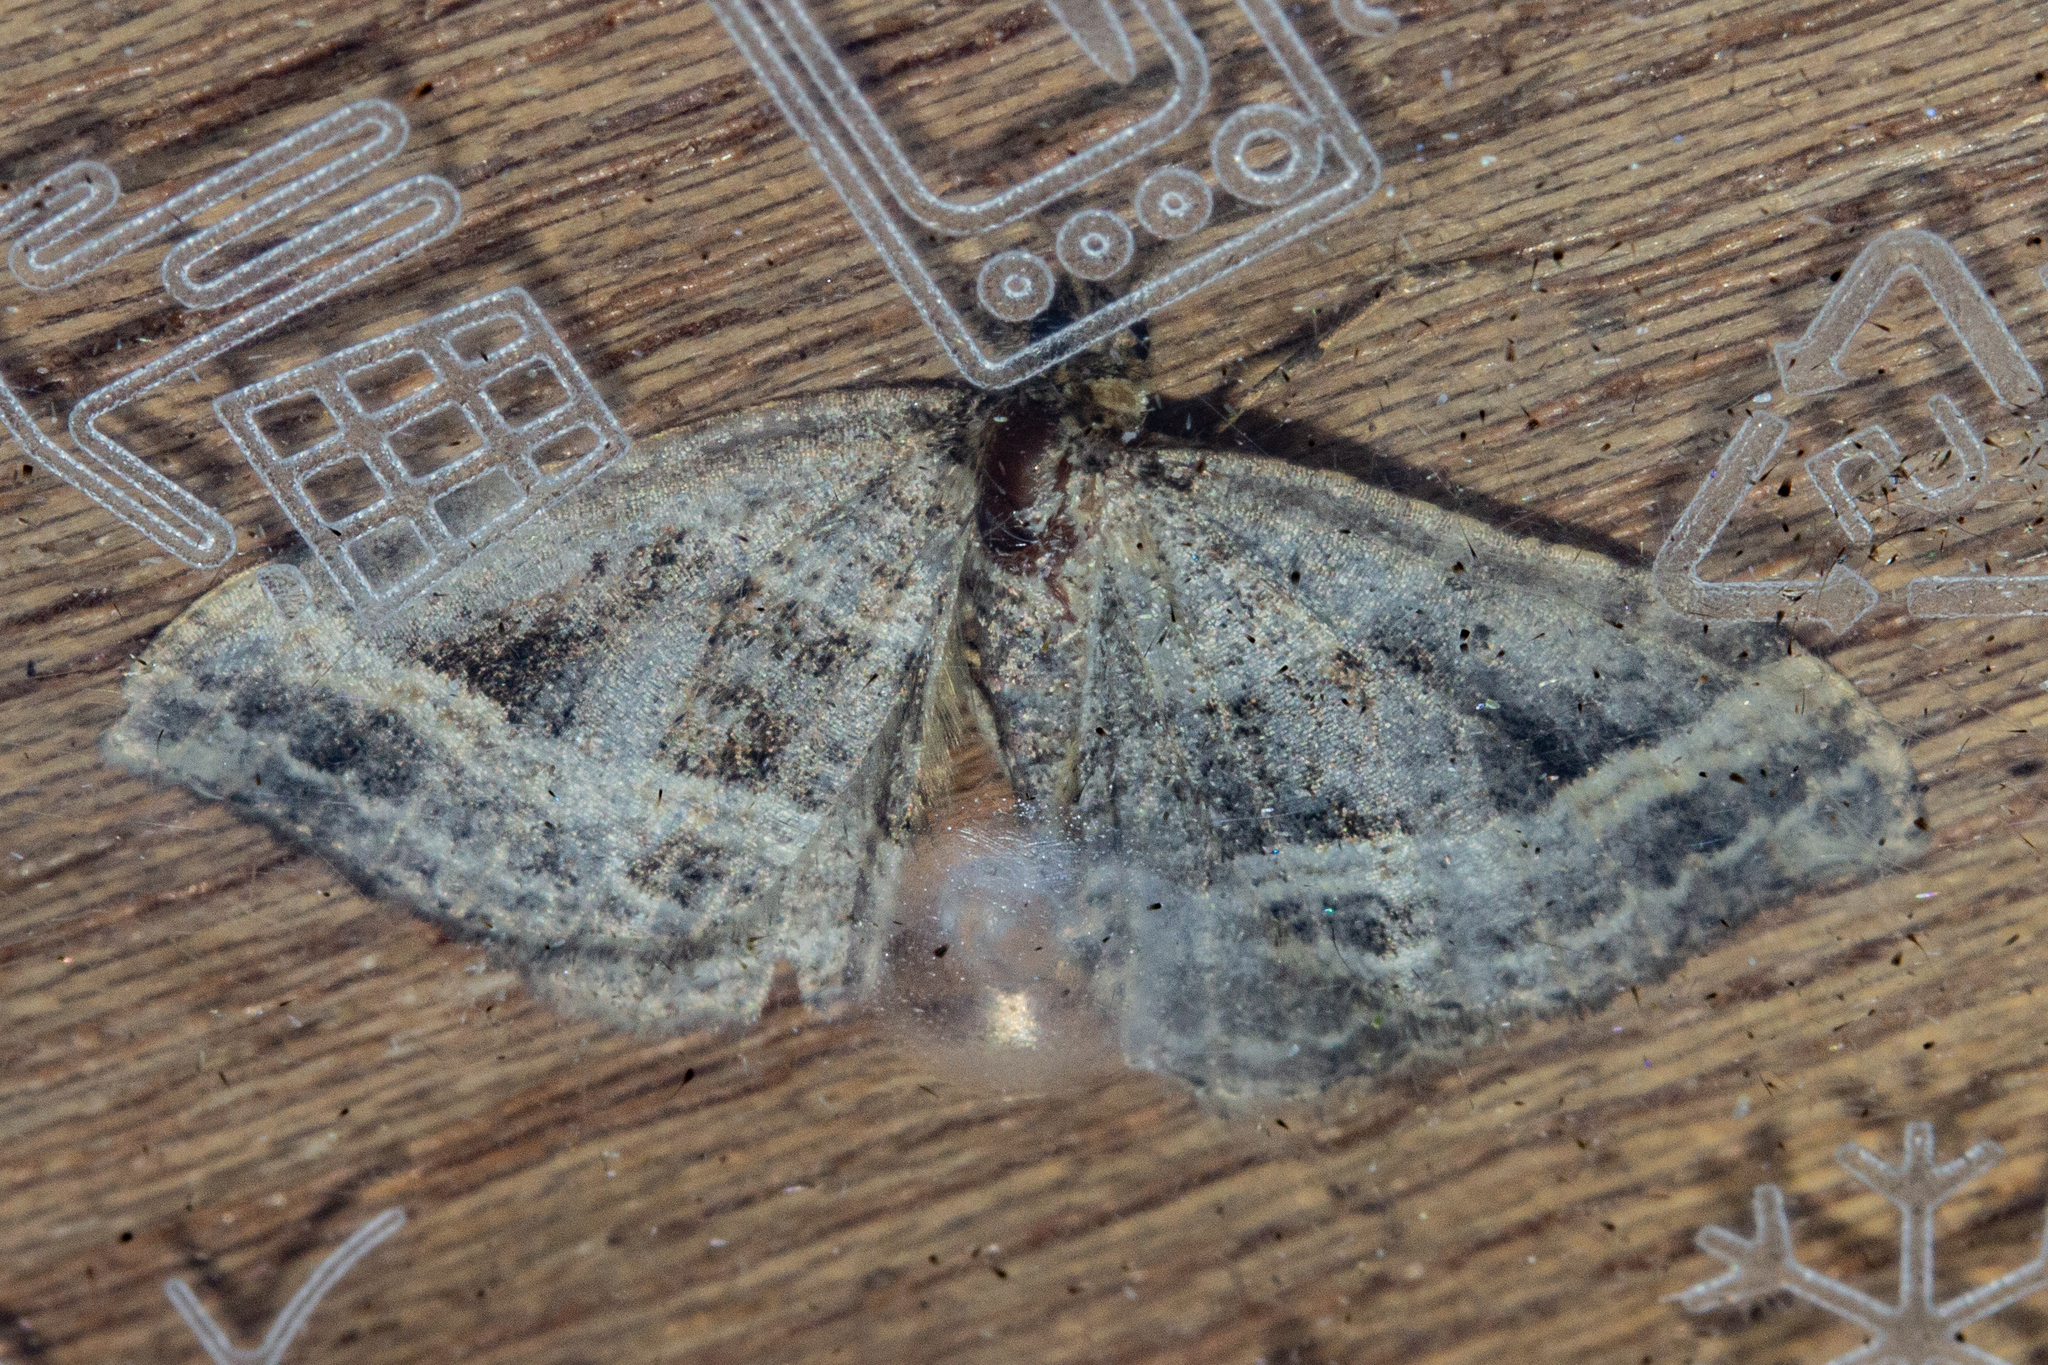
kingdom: Animalia
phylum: Arthropoda
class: Insecta
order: Lepidoptera
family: Geometridae
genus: Chrysolarentia
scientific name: Chrysolarentia subrectaria
